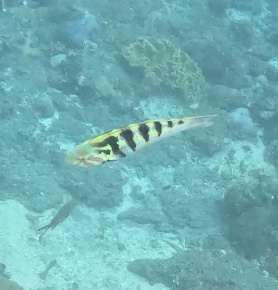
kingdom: Animalia
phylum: Chordata
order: Perciformes
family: Labridae
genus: Thalassoma
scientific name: Thalassoma hardwicke
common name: Sixbar wrasse
